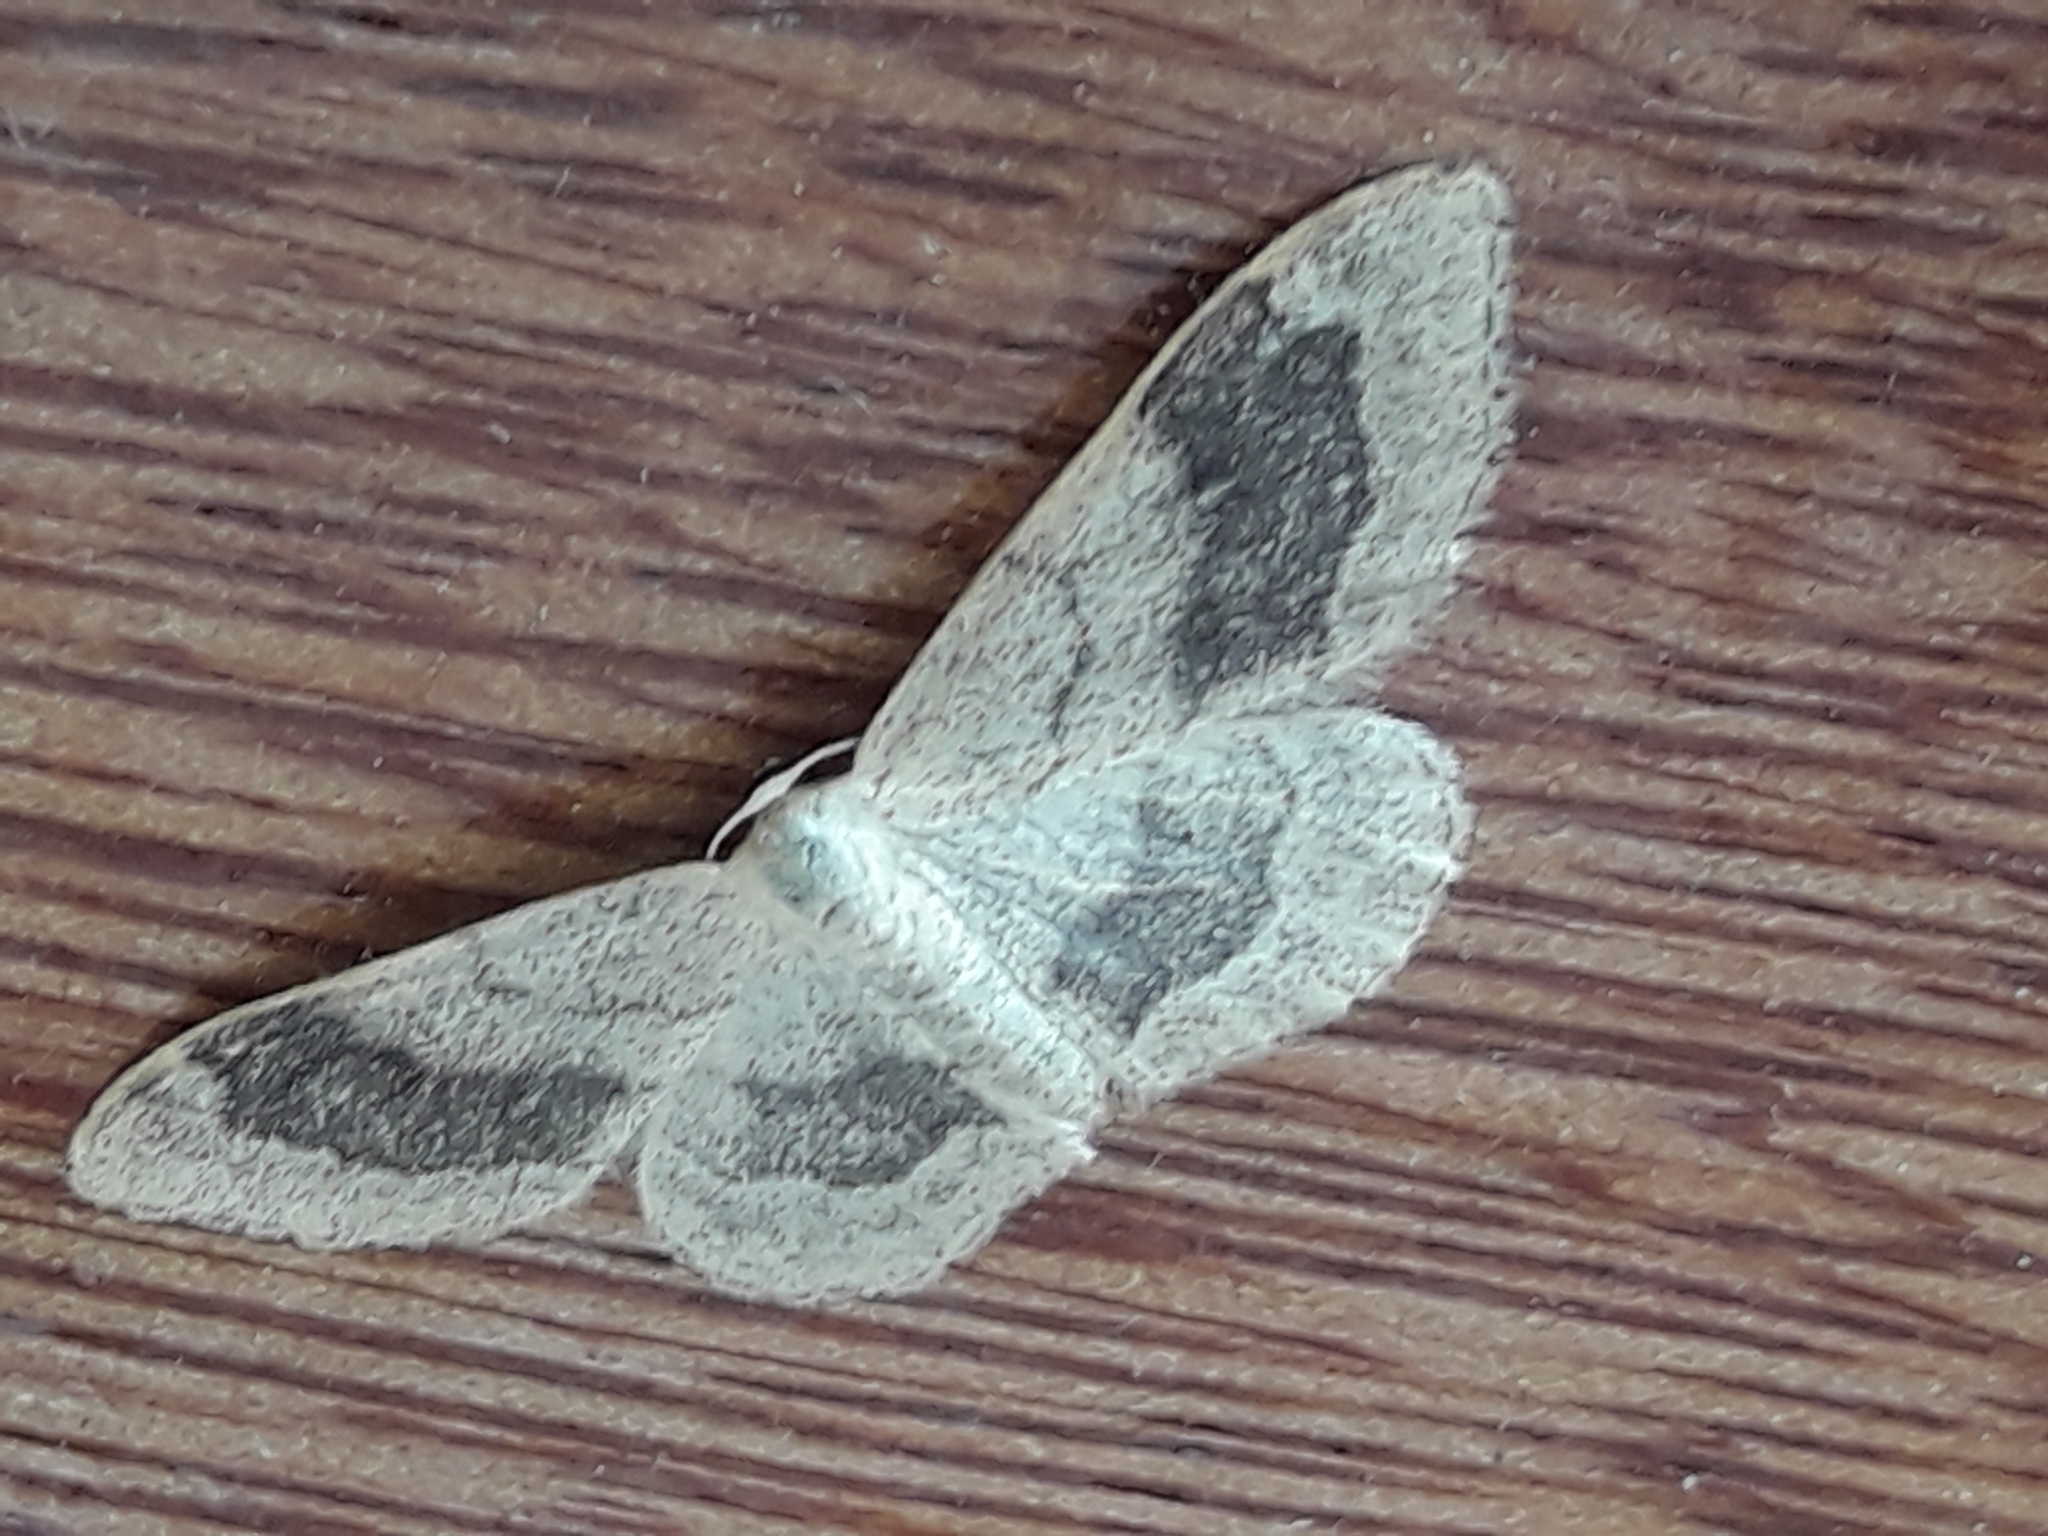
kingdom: Animalia
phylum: Arthropoda
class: Insecta
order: Lepidoptera
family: Geometridae
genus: Idaea
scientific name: Idaea aversata
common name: Riband wave
